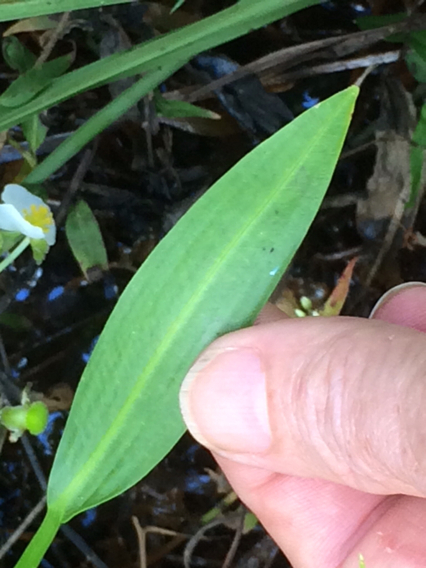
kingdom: Plantae
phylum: Tracheophyta
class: Liliopsida
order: Alismatales
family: Alismataceae
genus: Sagittaria
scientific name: Sagittaria platyphylla
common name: Broad-leaf arrowhead
